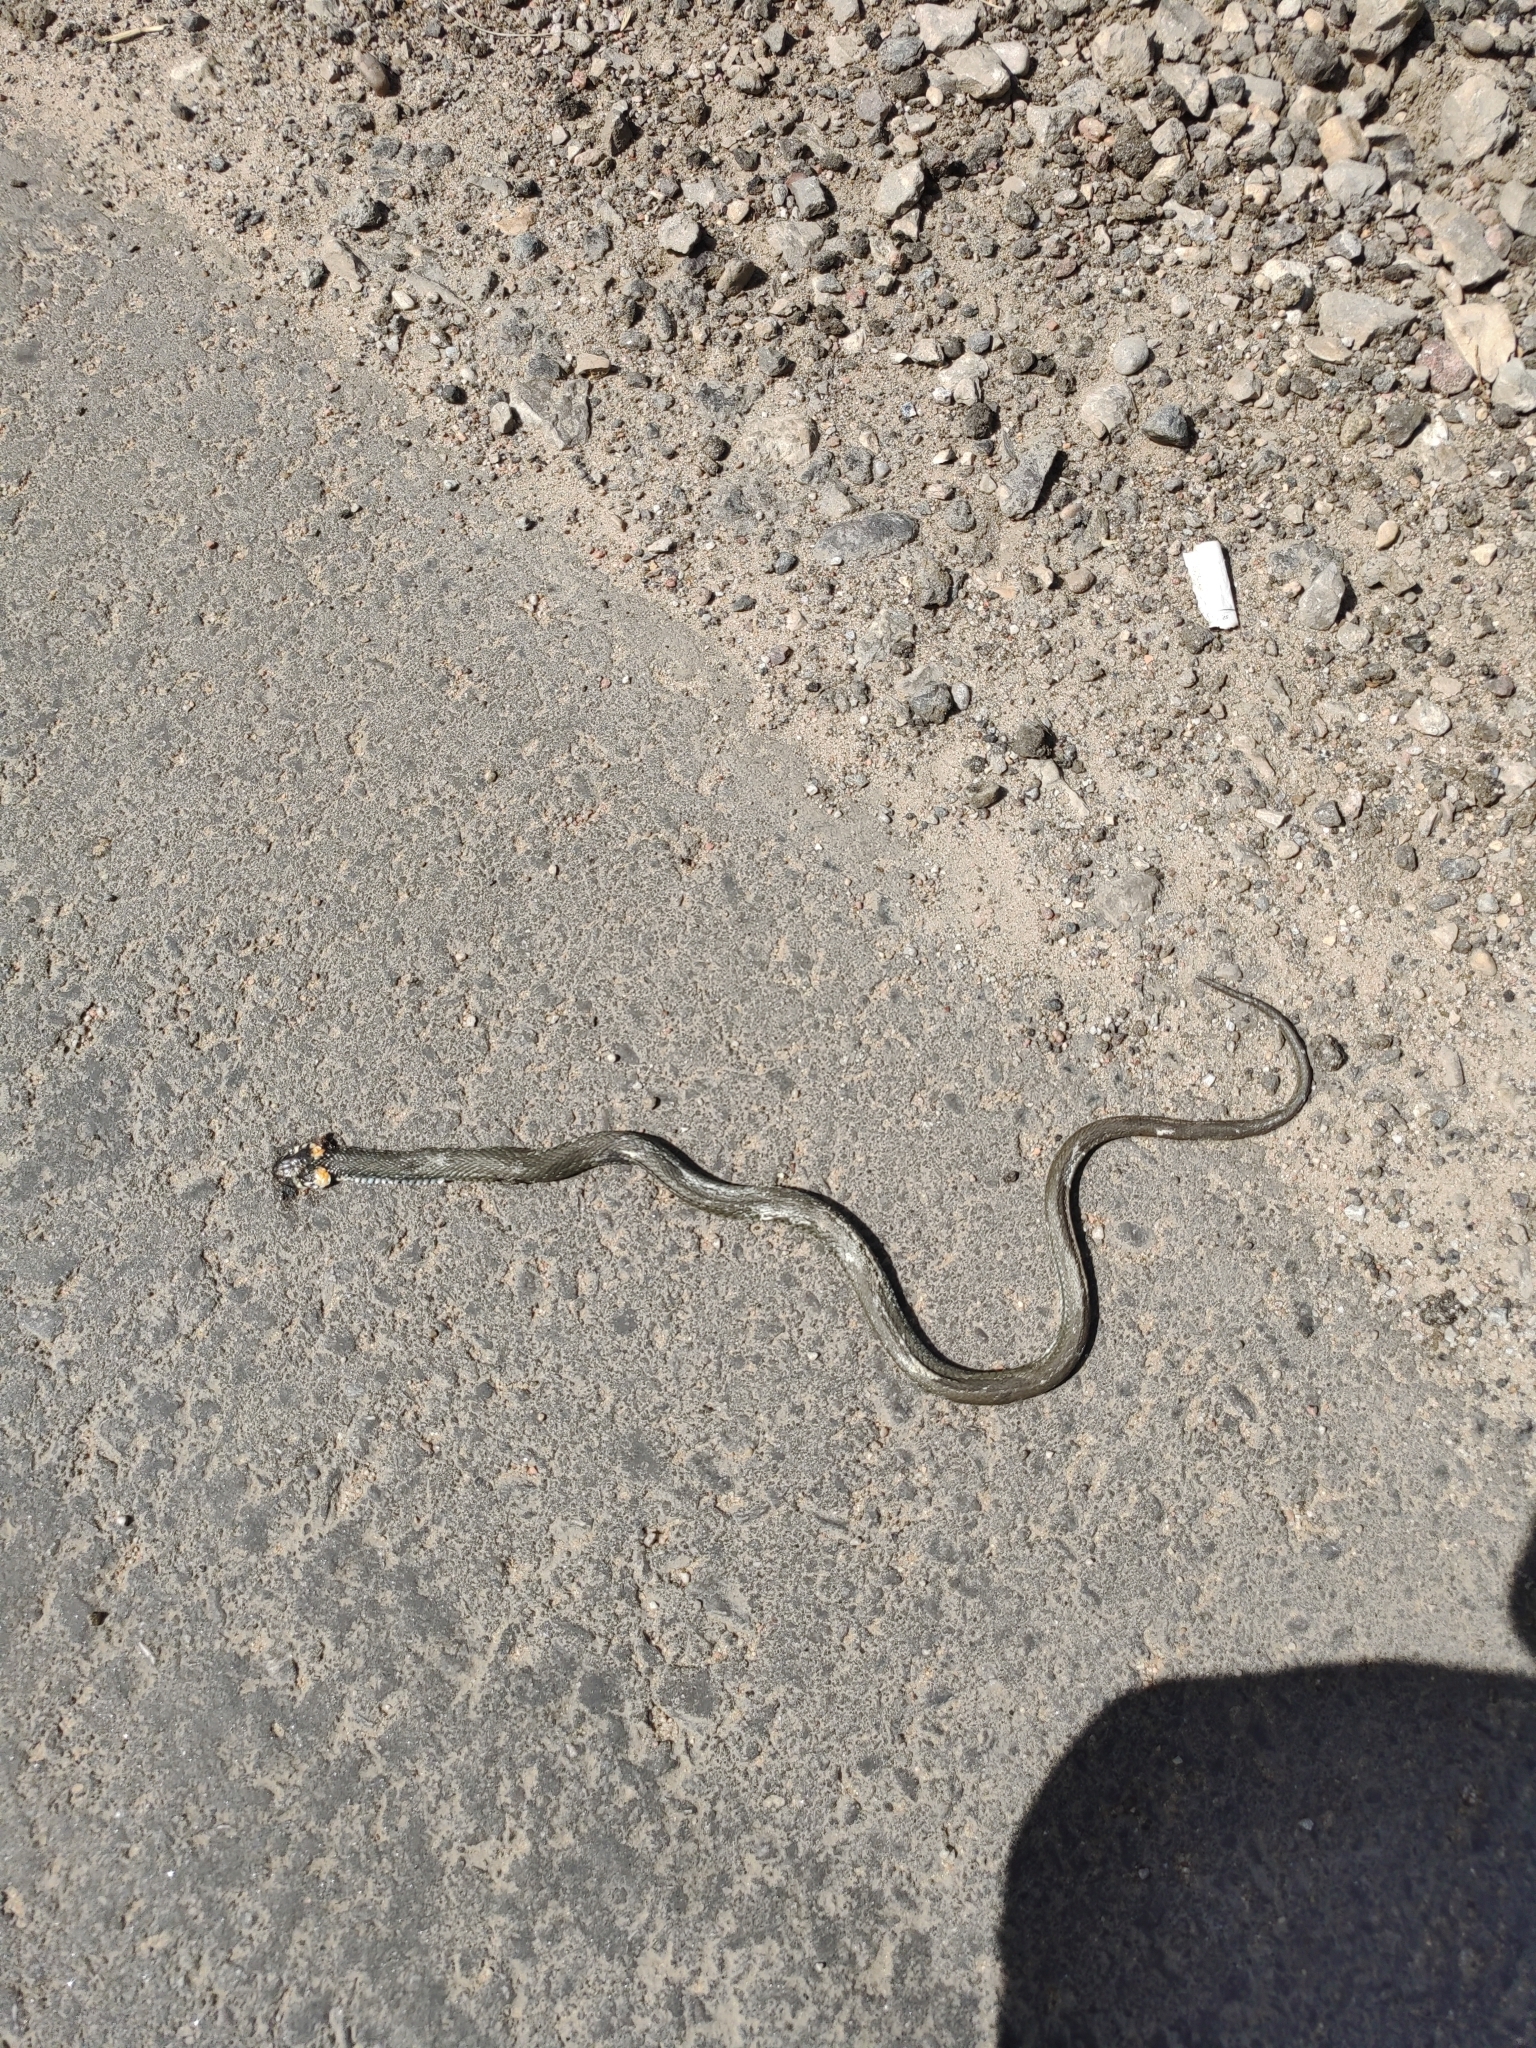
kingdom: Animalia
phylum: Chordata
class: Squamata
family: Colubridae
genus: Natrix
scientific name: Natrix natrix
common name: Grass snake
